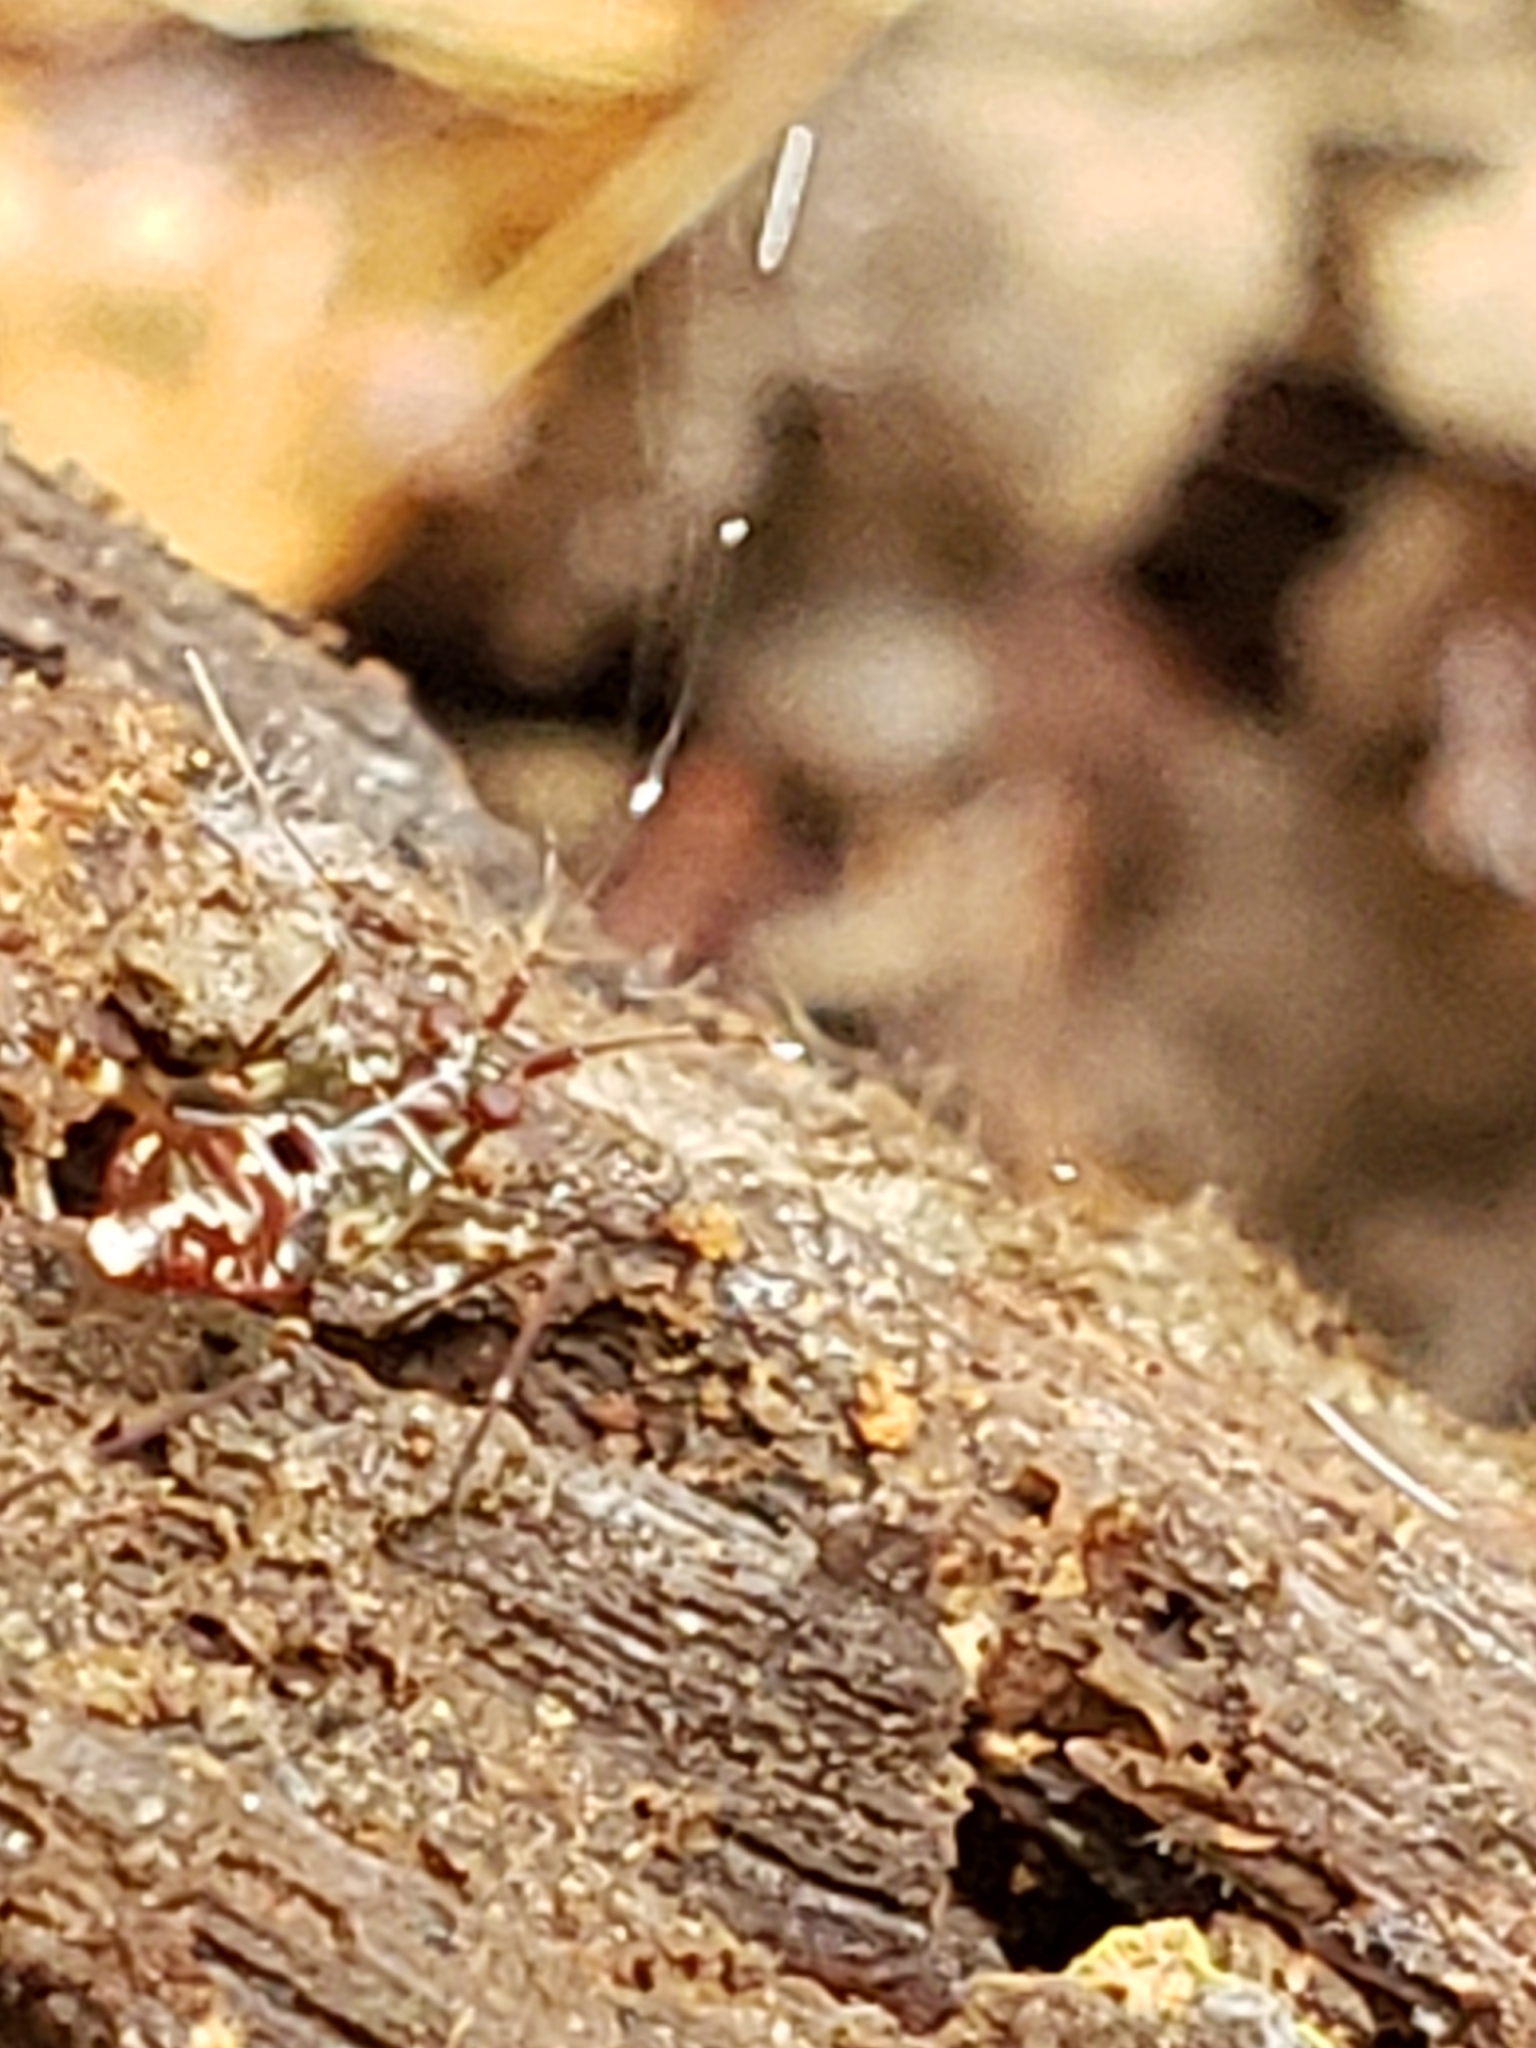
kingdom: Animalia
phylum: Arthropoda
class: Insecta
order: Hemiptera
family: Miridae
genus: Cylapus
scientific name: Cylapus tenuicornis
